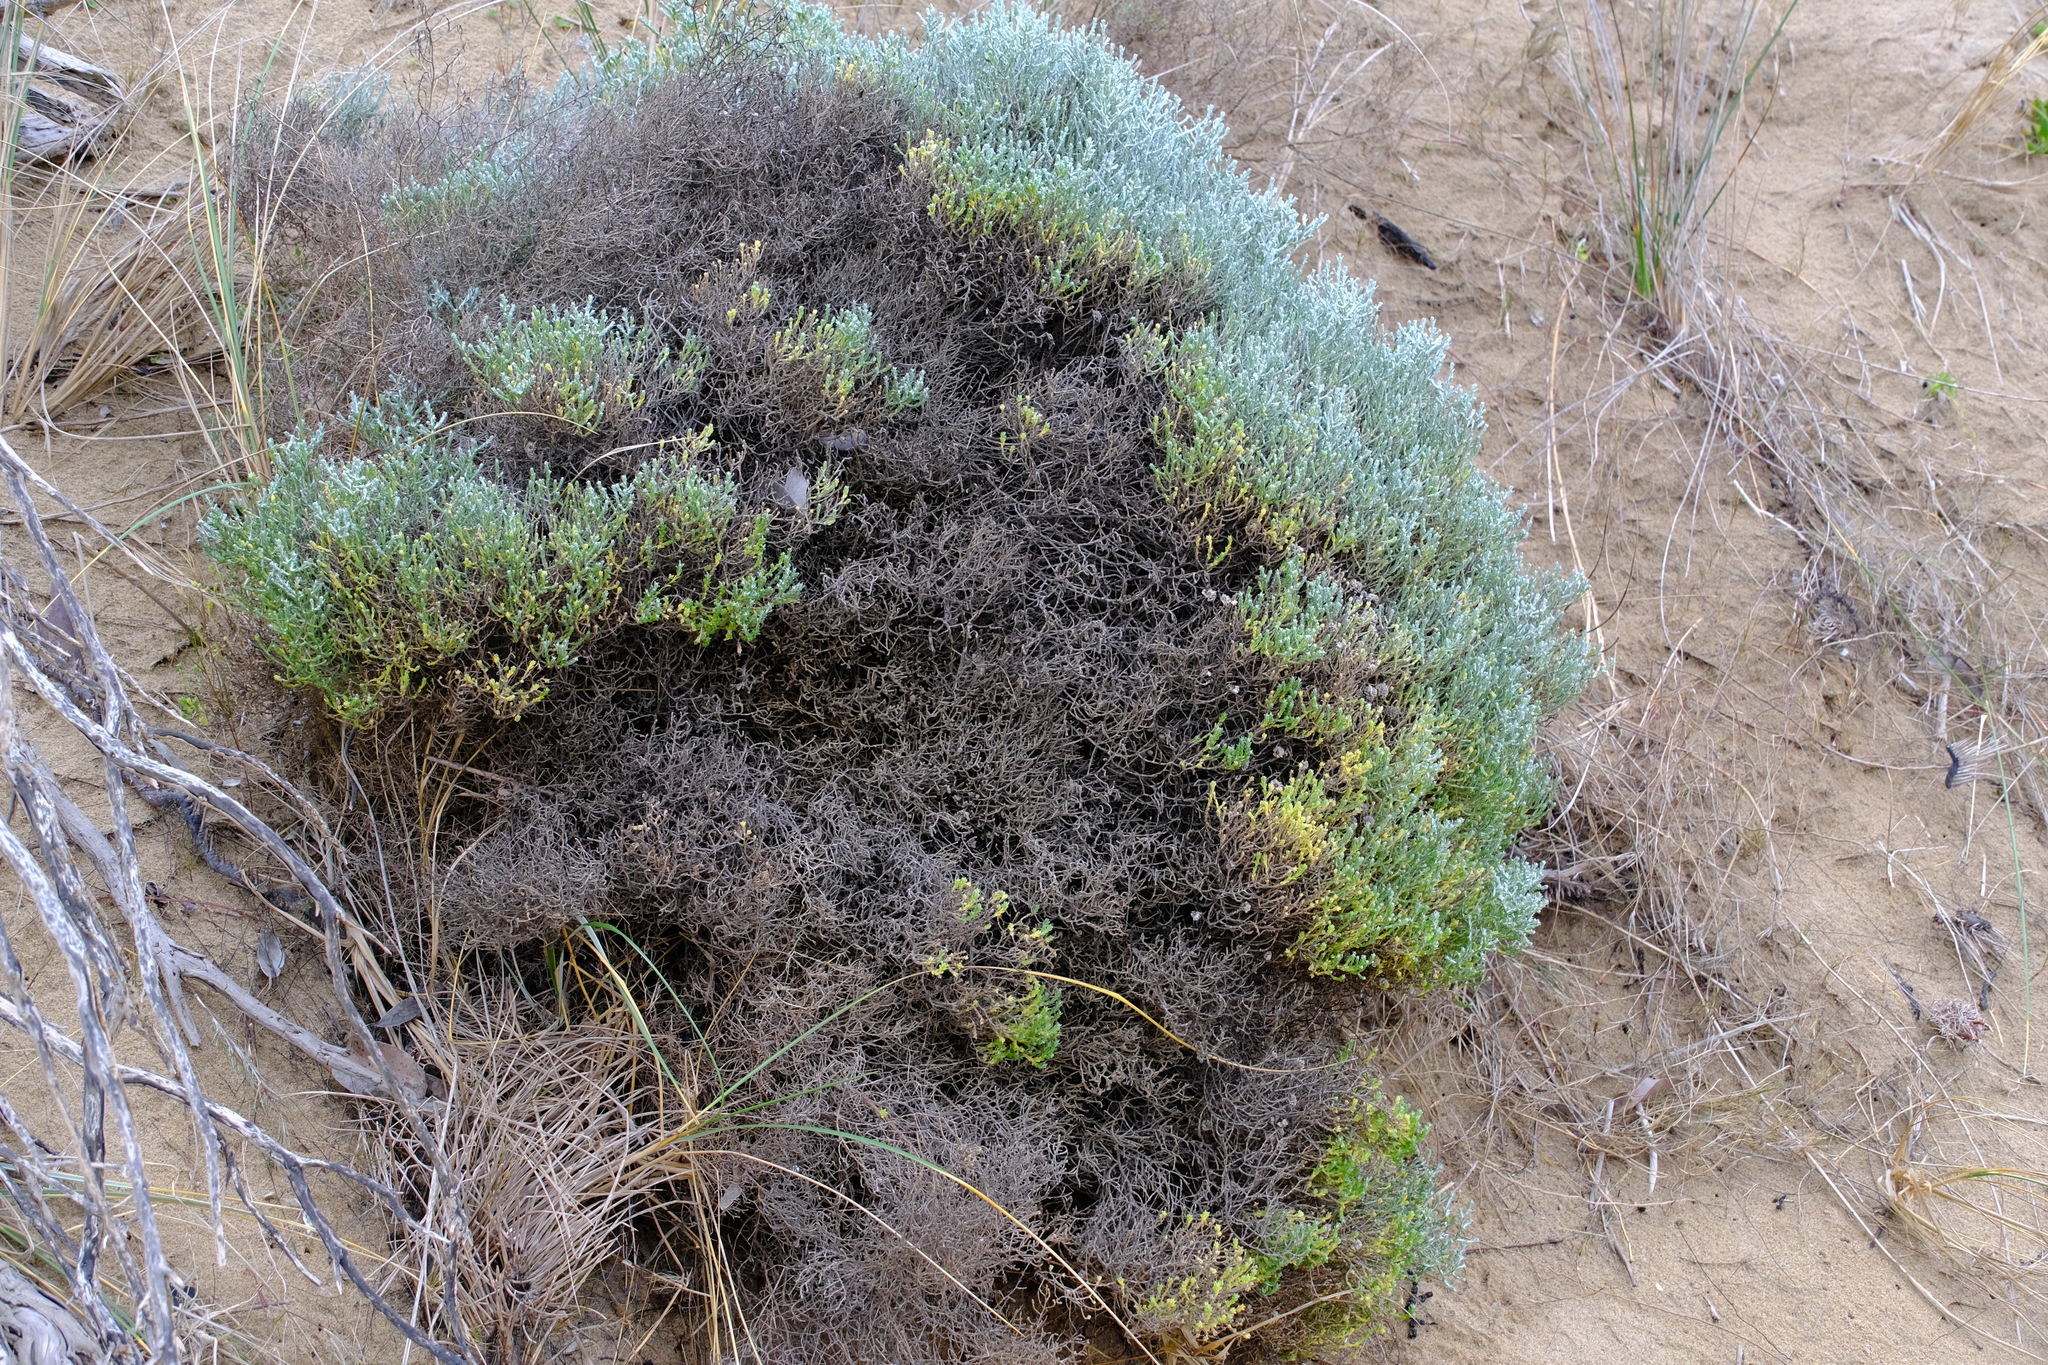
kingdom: Plantae
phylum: Tracheophyta
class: Magnoliopsida
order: Asterales
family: Asteraceae
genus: Calocephalus
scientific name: Calocephalus brownii
